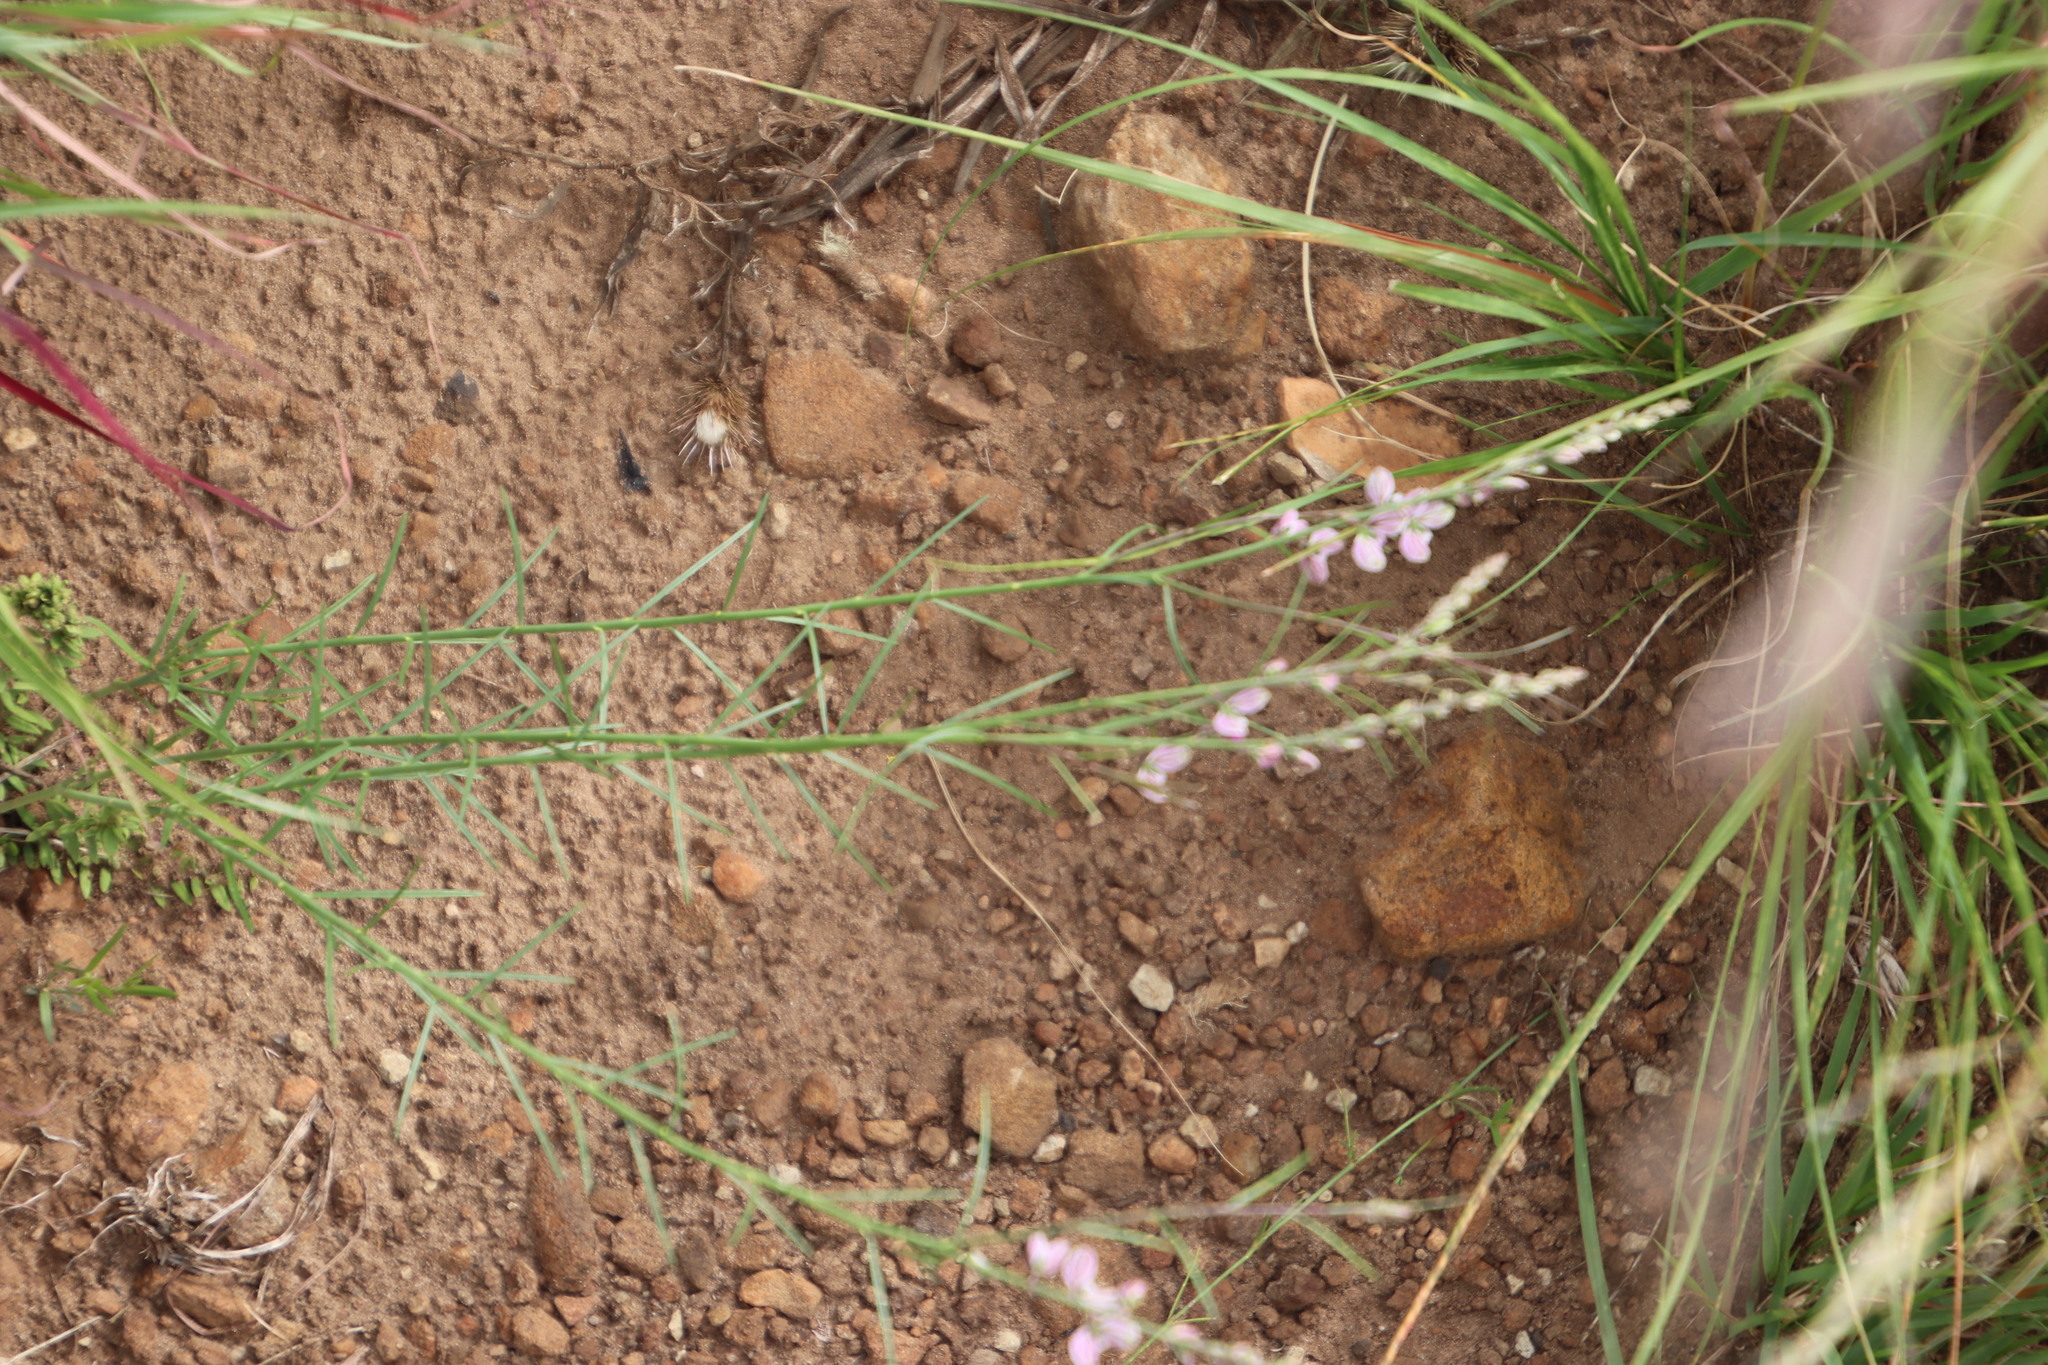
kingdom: Plantae
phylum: Tracheophyta
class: Magnoliopsida
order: Fabales
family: Polygalaceae
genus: Polygala
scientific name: Polygala hottentotta
